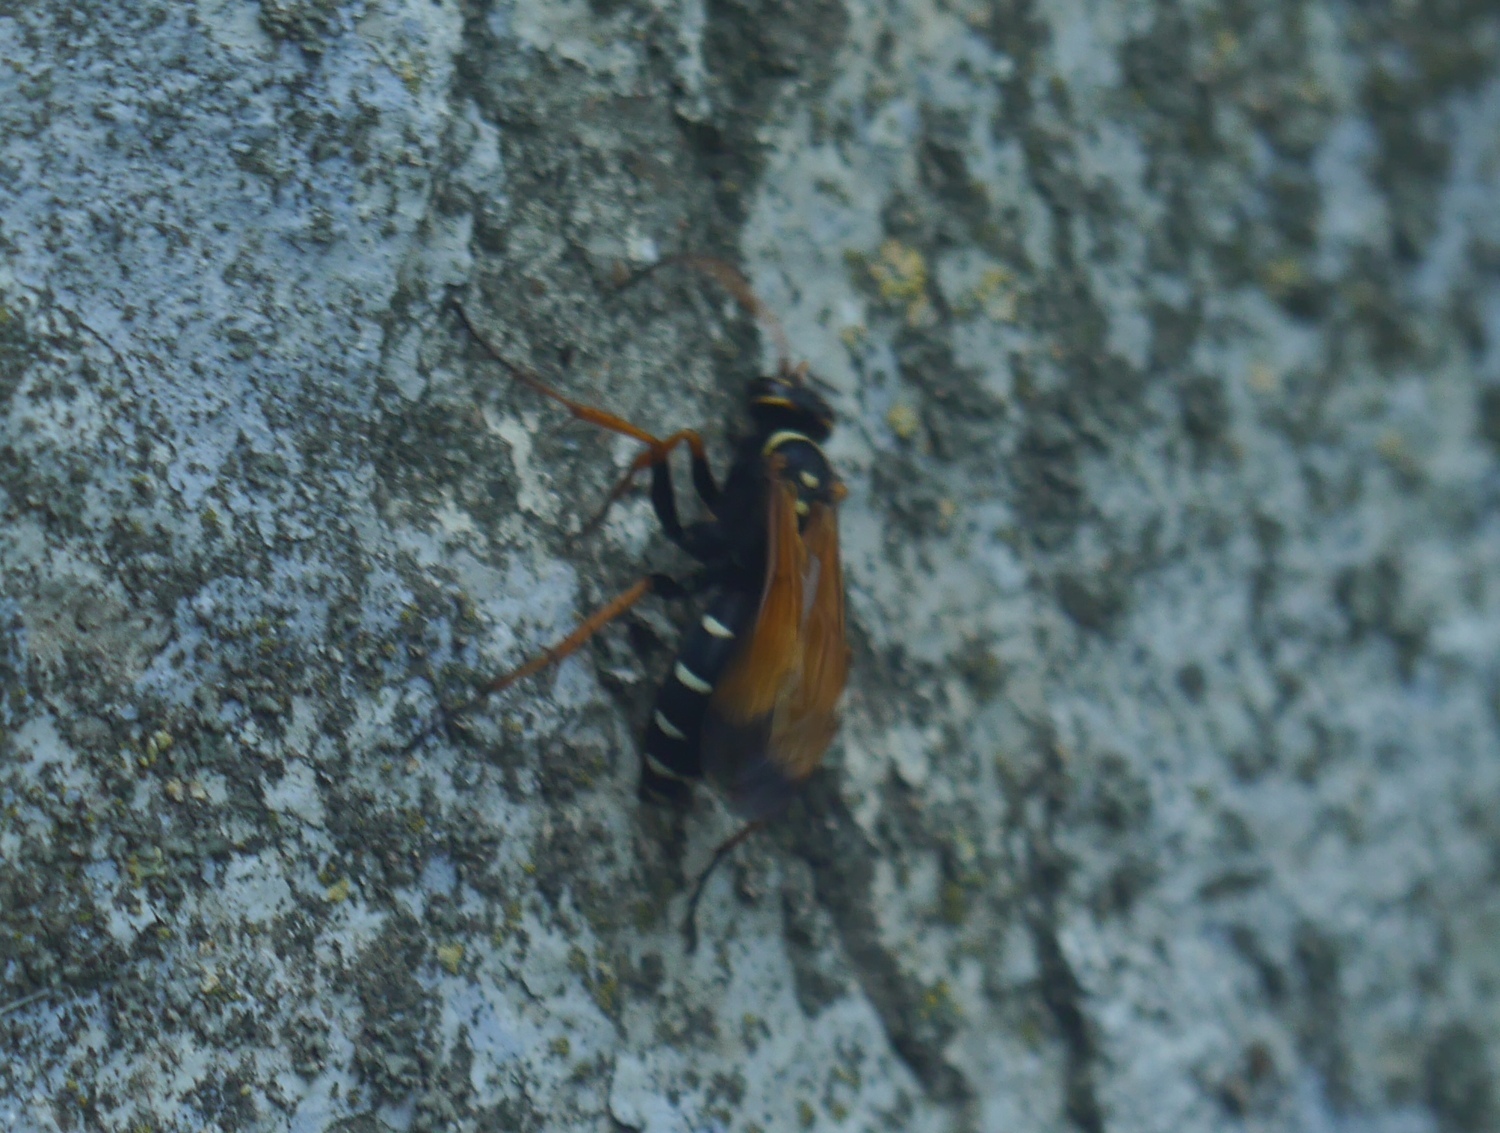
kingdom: Animalia
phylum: Arthropoda
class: Insecta
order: Hymenoptera
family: Pompilidae
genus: Parabatozonus
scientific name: Parabatozonus lacerticida
